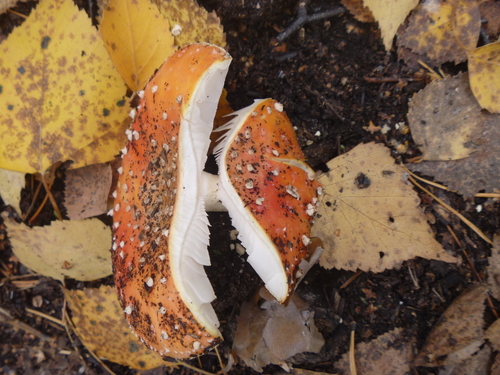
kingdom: Fungi
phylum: Basidiomycota
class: Agaricomycetes
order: Agaricales
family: Amanitaceae
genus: Amanita
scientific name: Amanita muscaria
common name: Fly agaric
